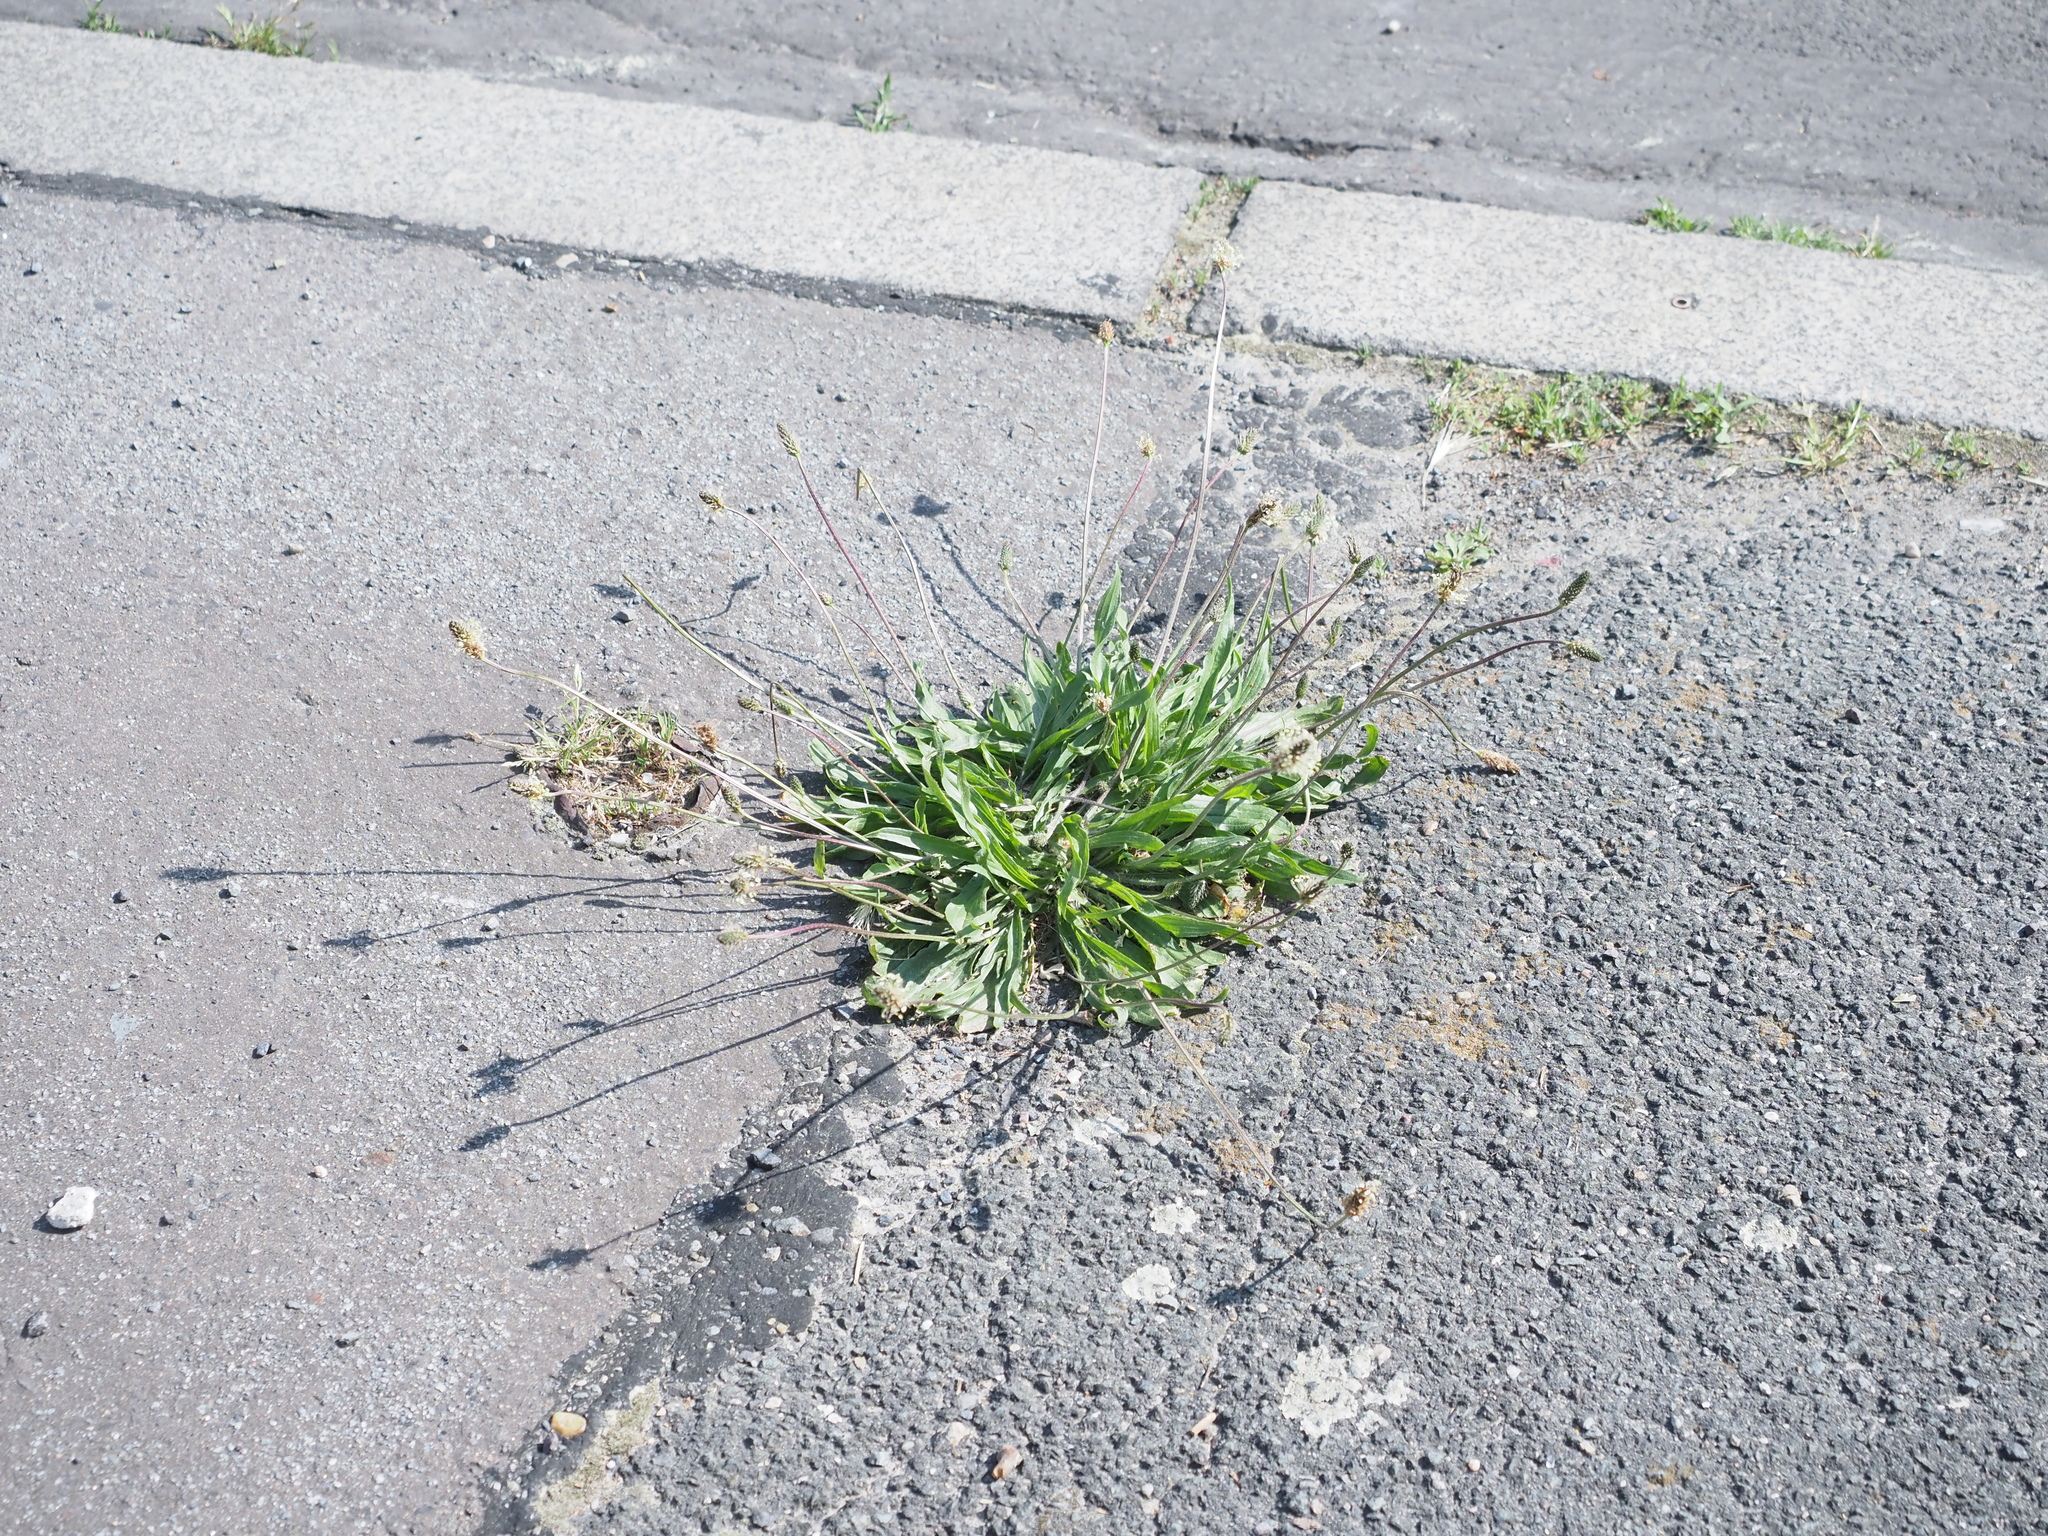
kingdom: Plantae
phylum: Tracheophyta
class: Magnoliopsida
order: Lamiales
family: Plantaginaceae
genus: Plantago
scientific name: Plantago lanceolata
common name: Ribwort plantain
